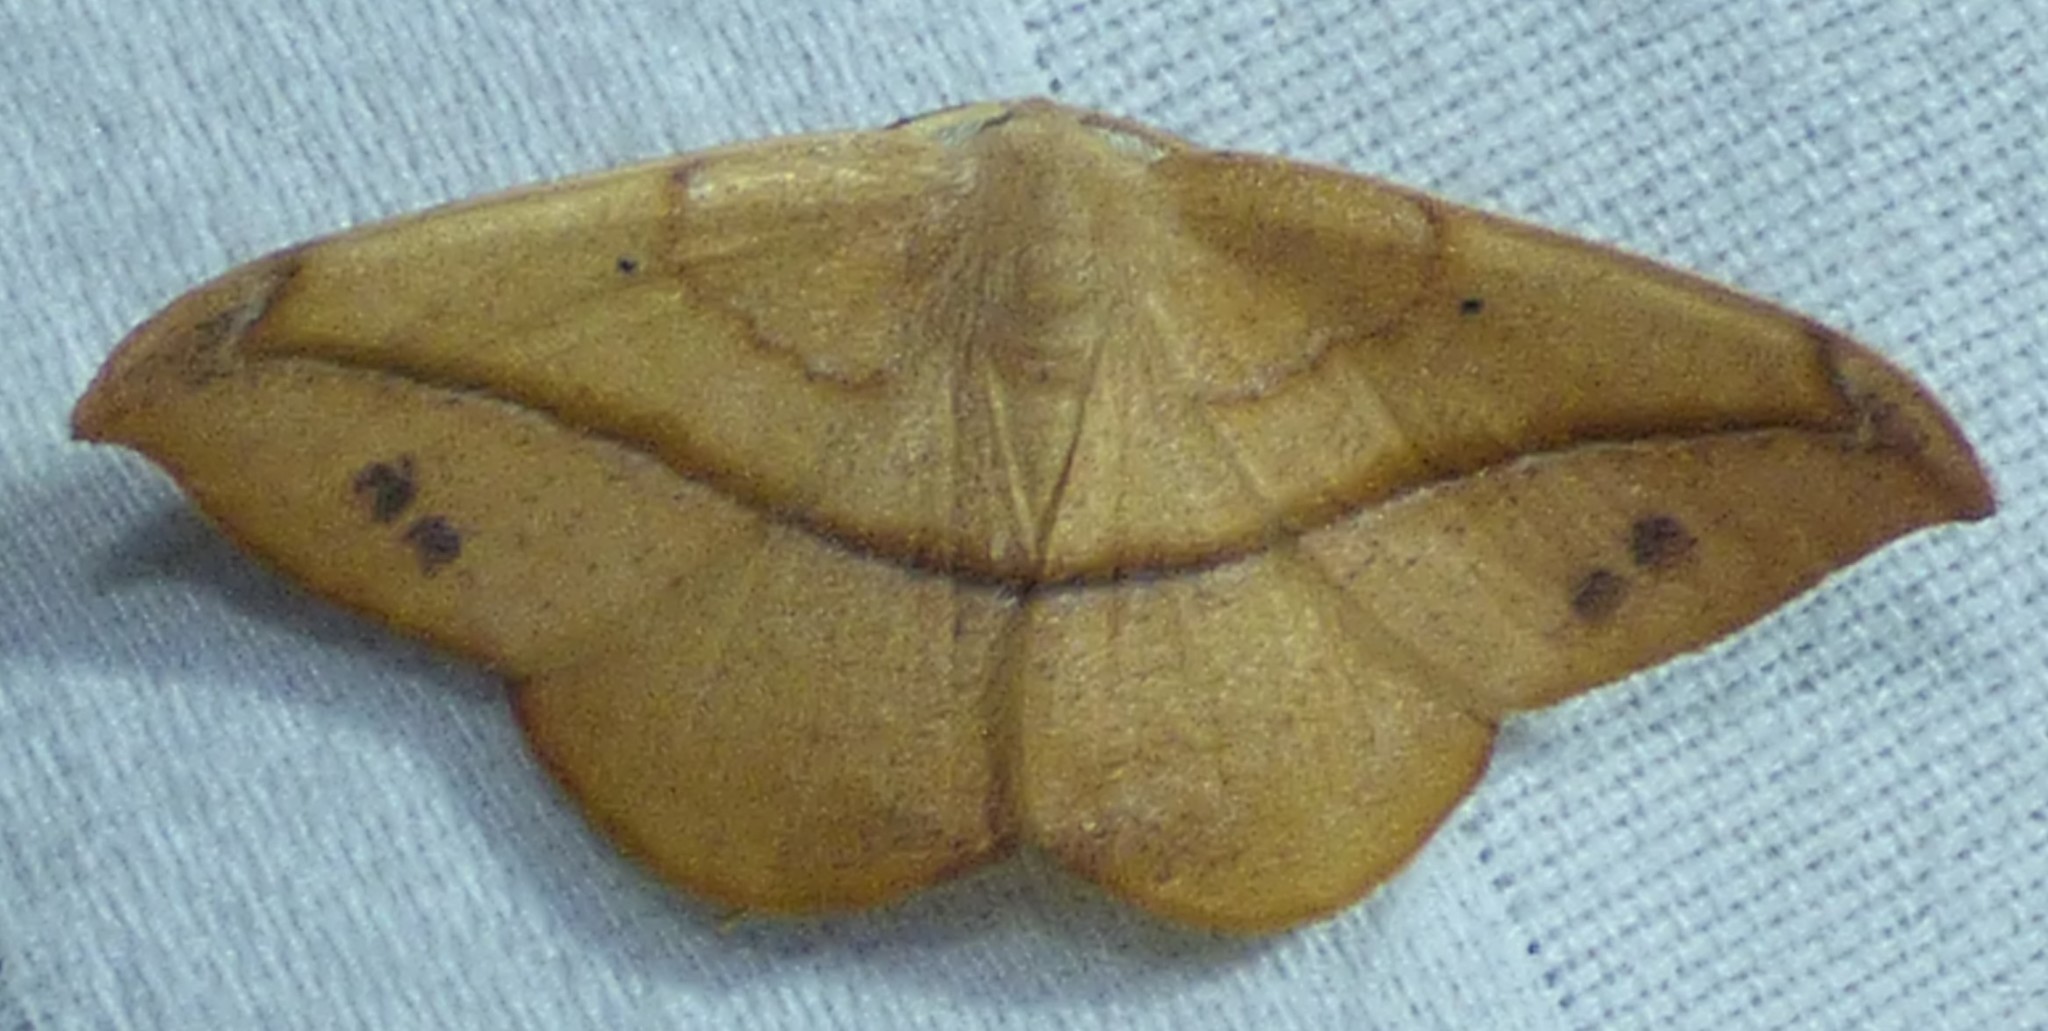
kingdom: Animalia
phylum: Arthropoda
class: Insecta
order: Lepidoptera
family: Geometridae
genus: Patalene
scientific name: Patalene olyzonaria
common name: Juniper geometer moth
